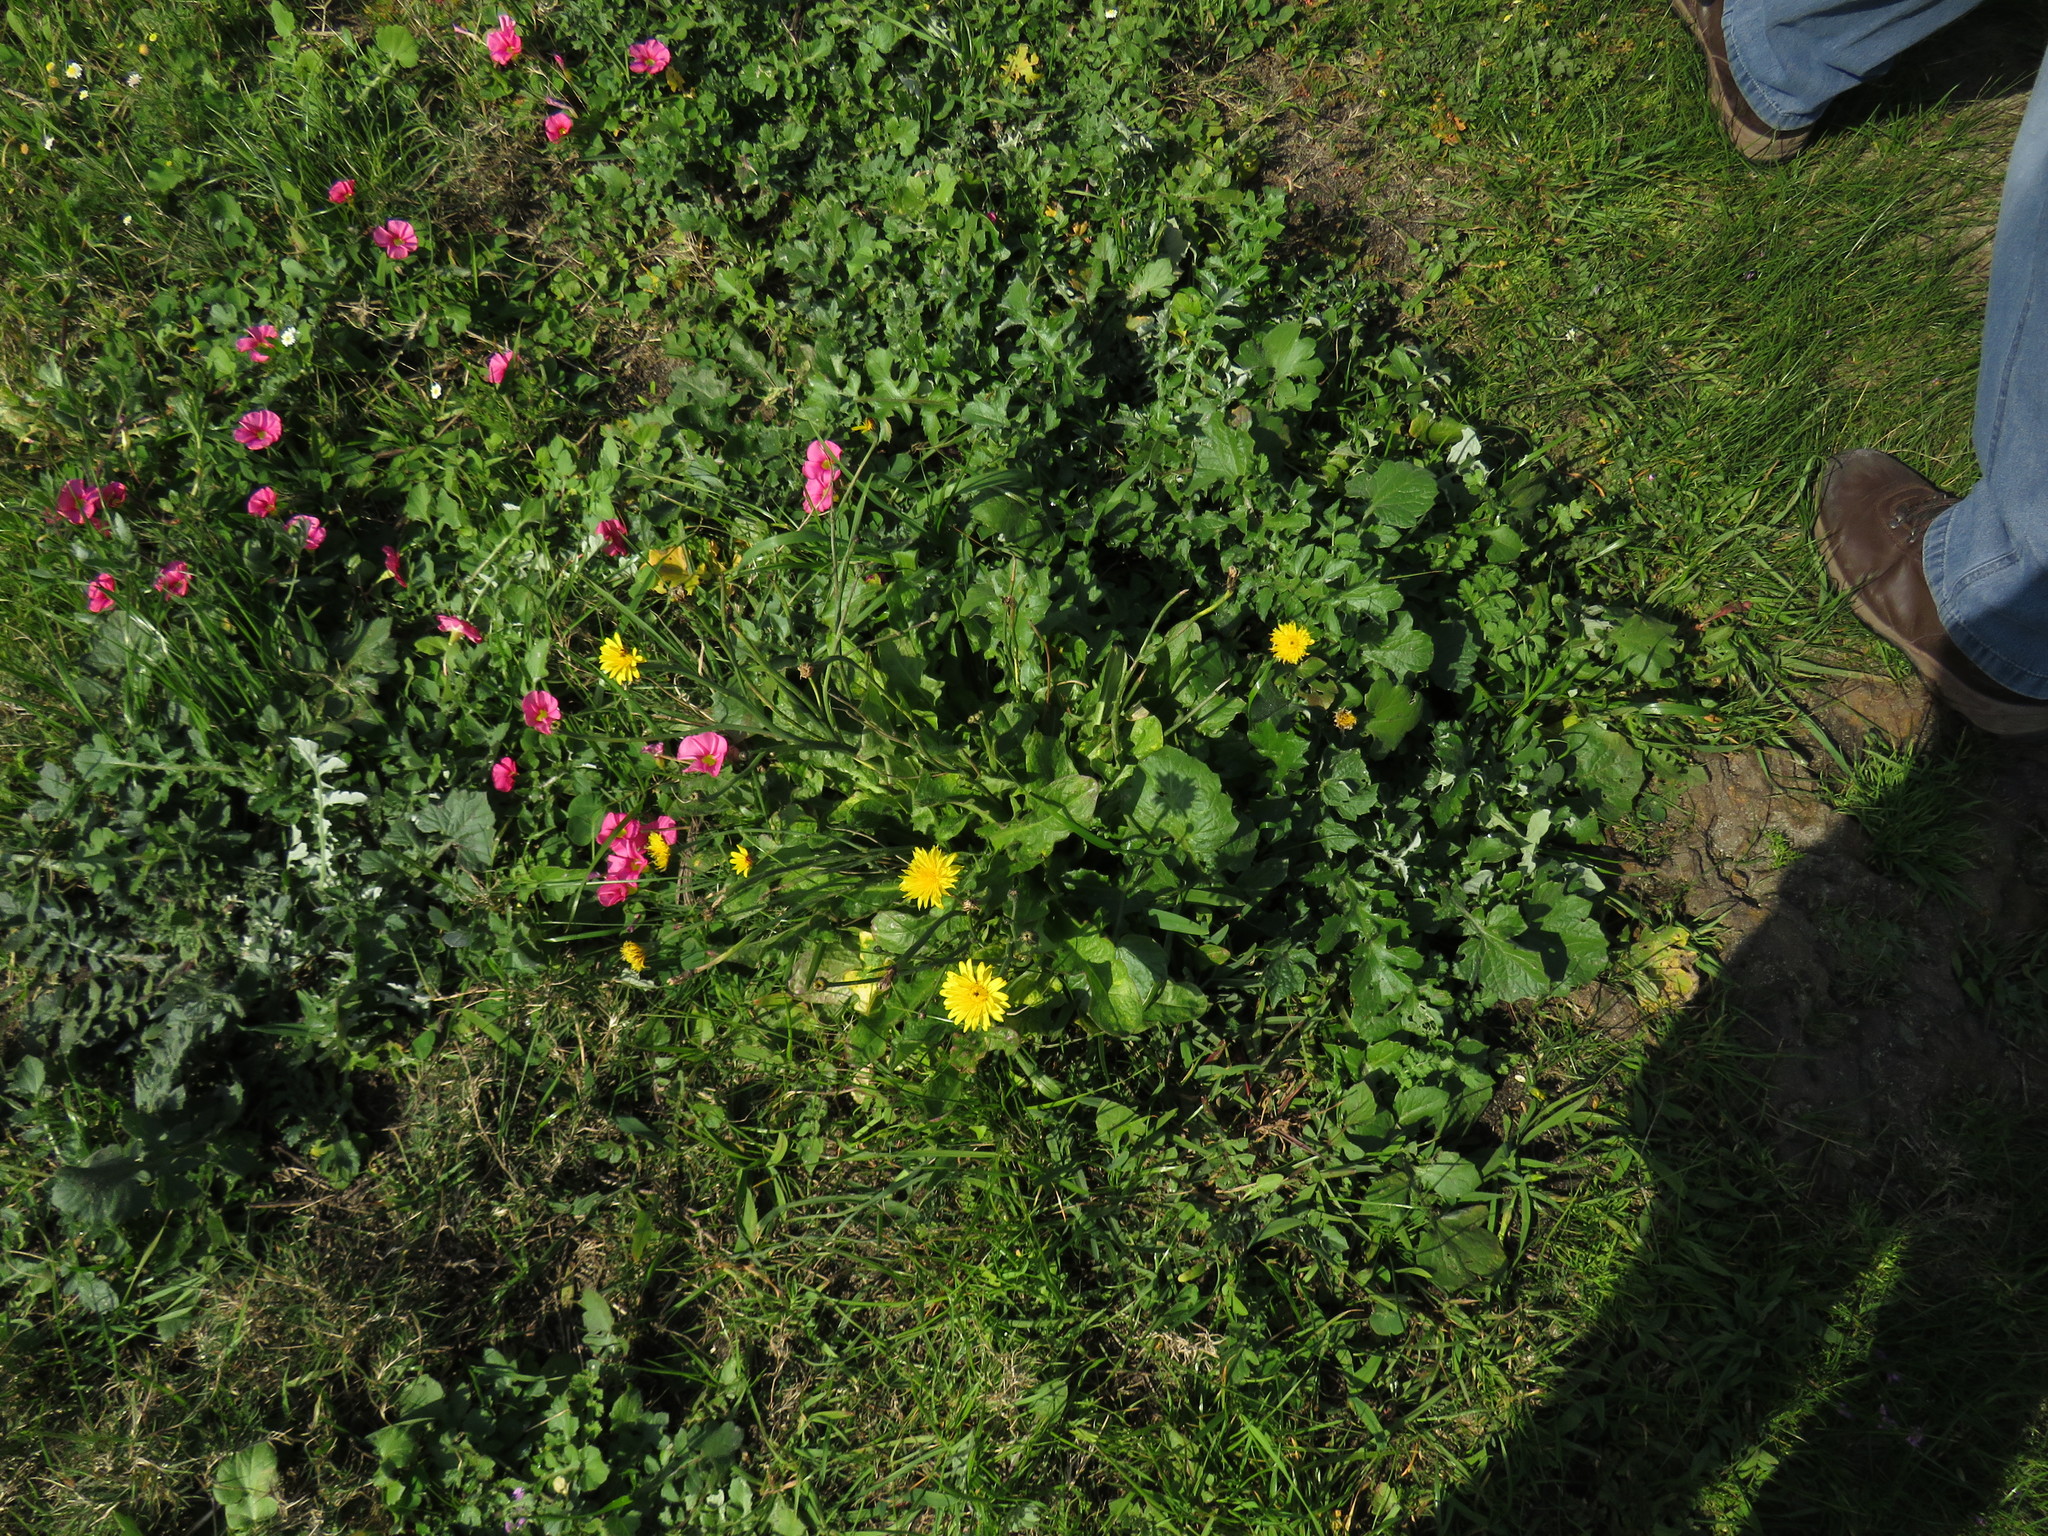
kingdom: Plantae
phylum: Tracheophyta
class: Magnoliopsida
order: Asterales
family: Asteraceae
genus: Hypochaeris
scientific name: Hypochaeris radicata
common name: Flatweed
